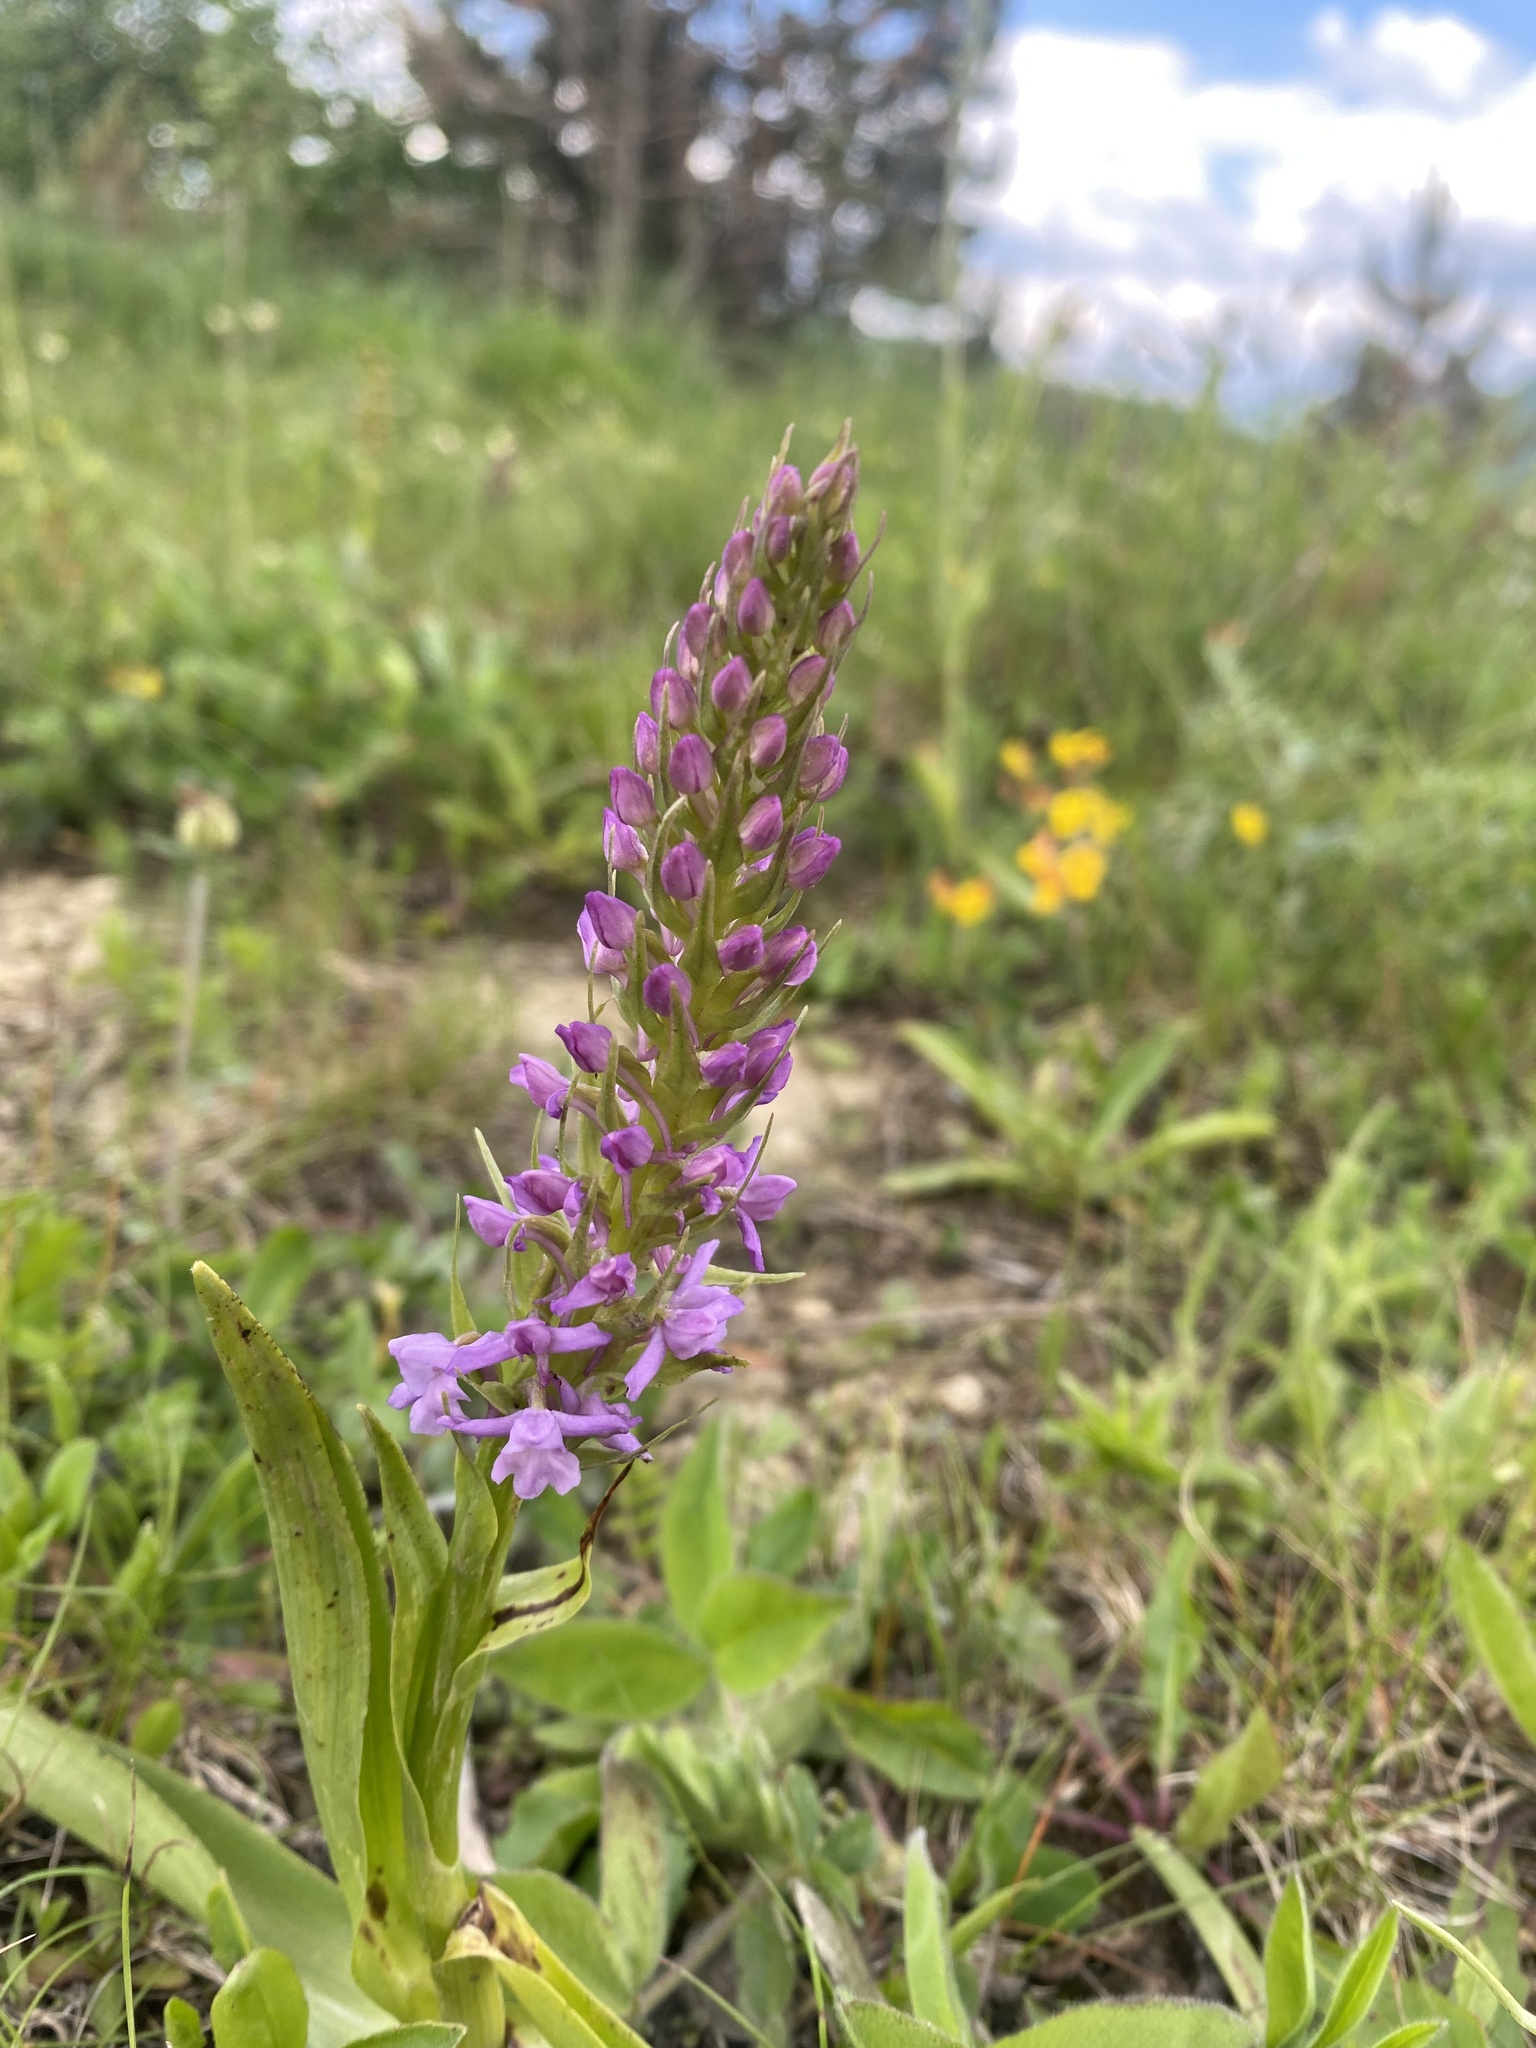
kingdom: Plantae
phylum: Tracheophyta
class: Liliopsida
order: Asparagales
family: Orchidaceae
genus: Gymnadenia
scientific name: Gymnadenia conopsea
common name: Fragrant orchid
